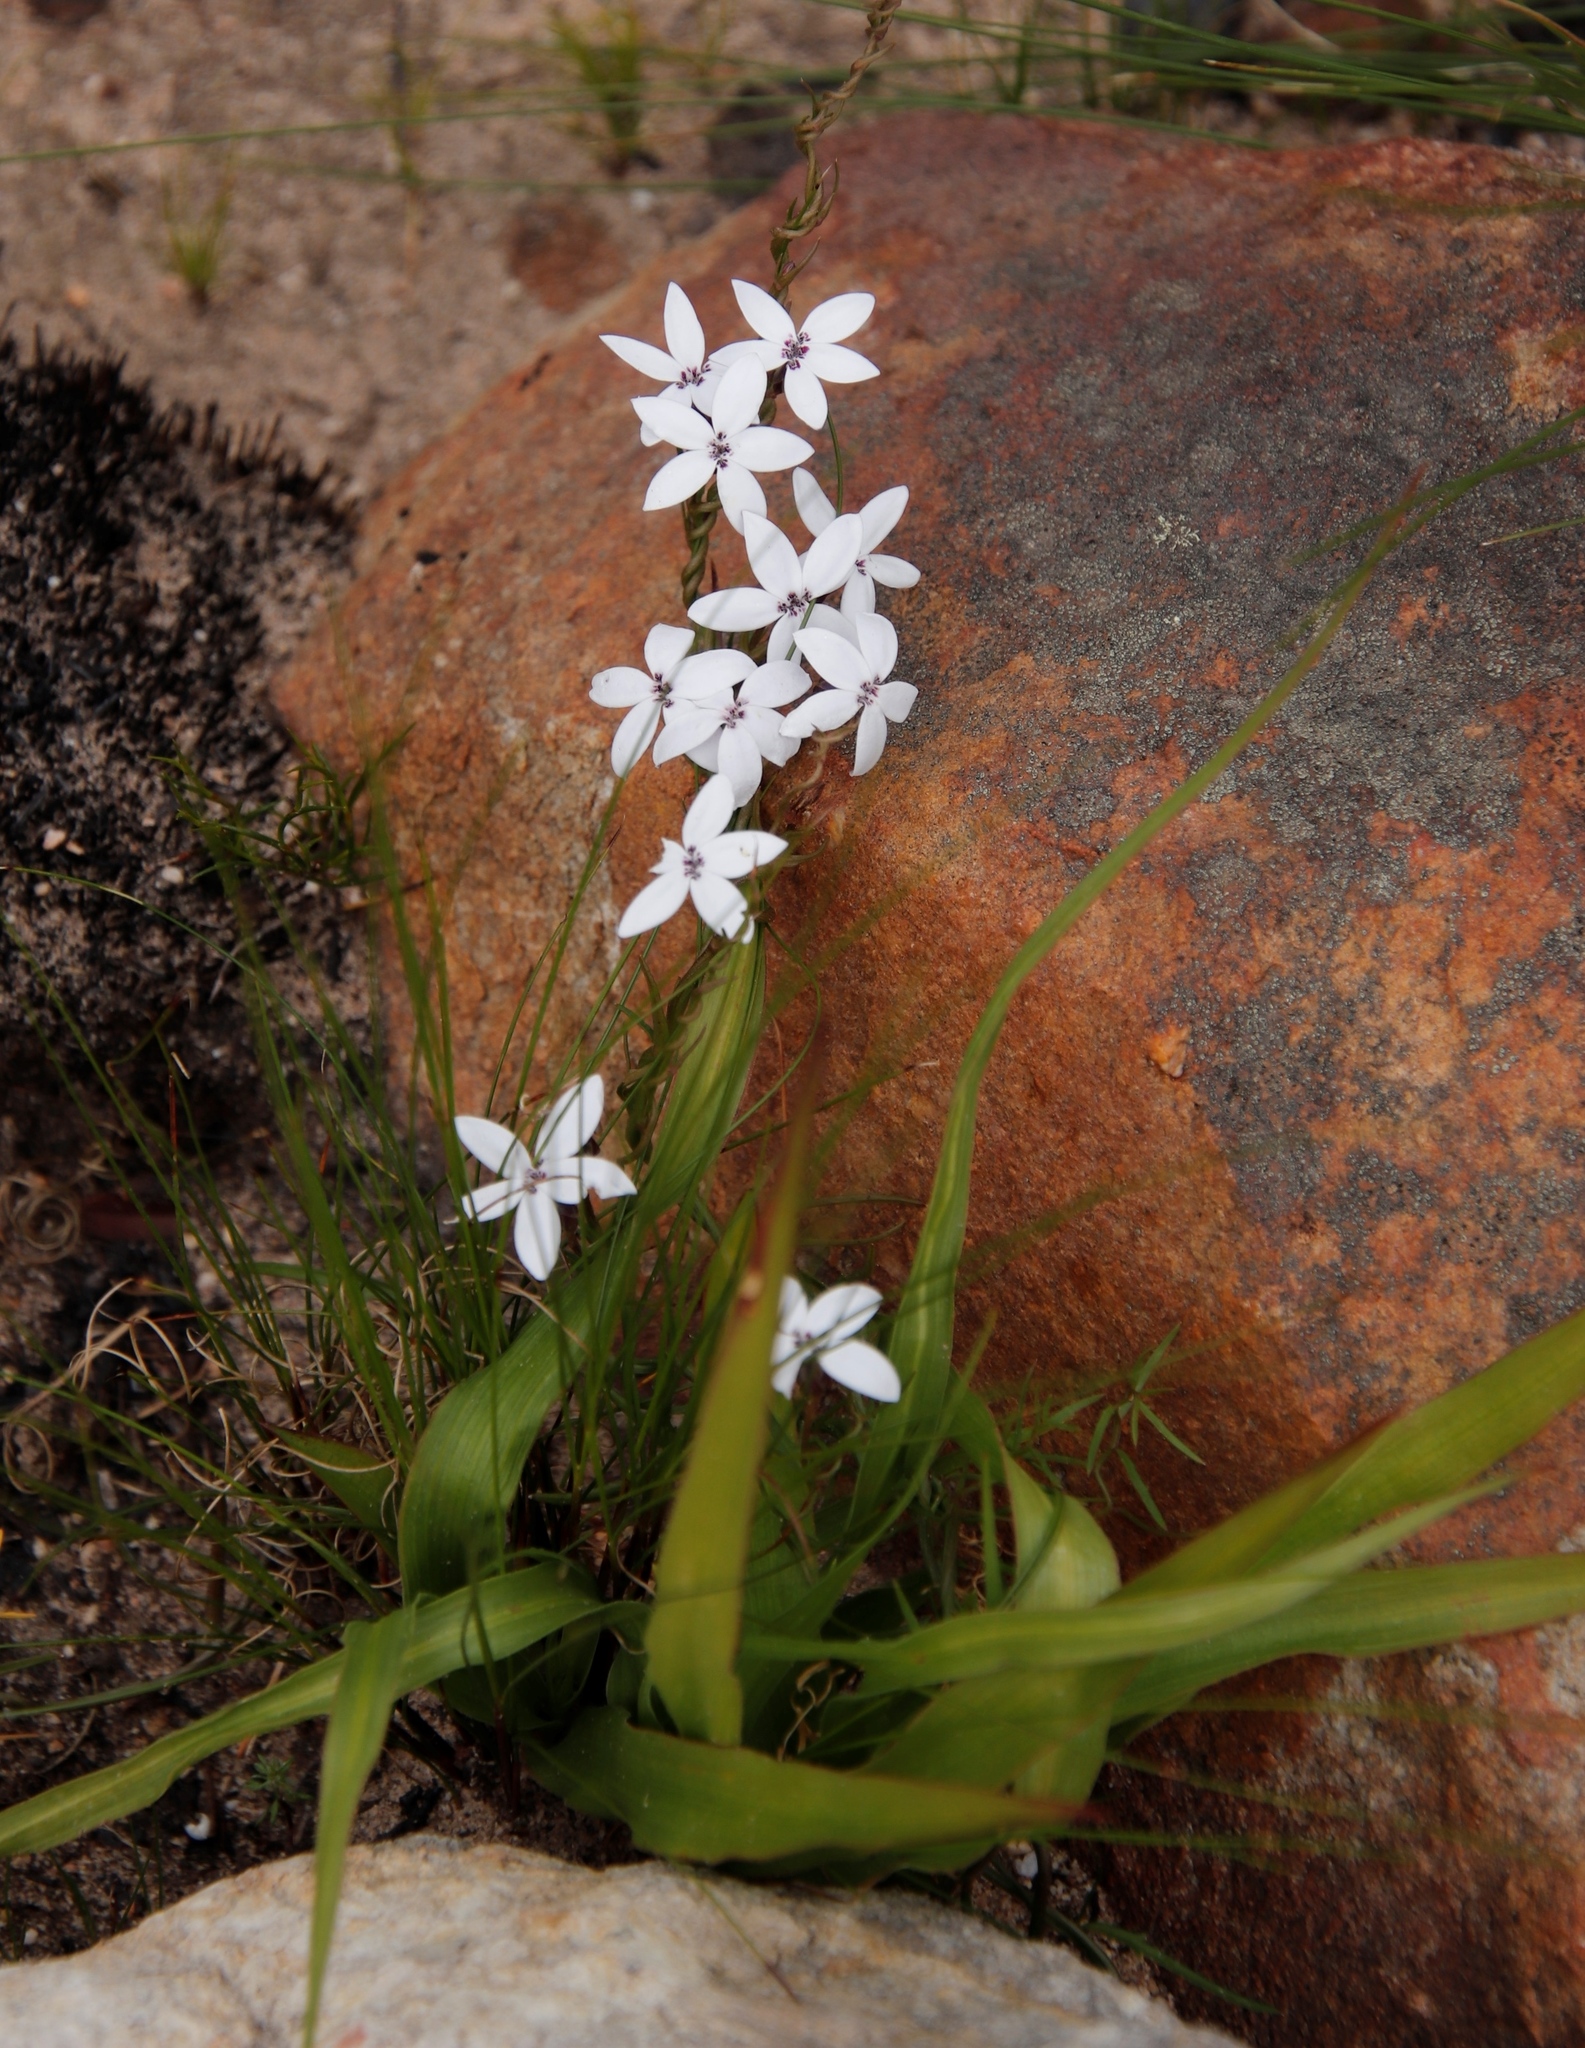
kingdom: Plantae
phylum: Tracheophyta
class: Magnoliopsida
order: Asterales
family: Campanulaceae
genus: Cyphia
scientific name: Cyphia volubilis
